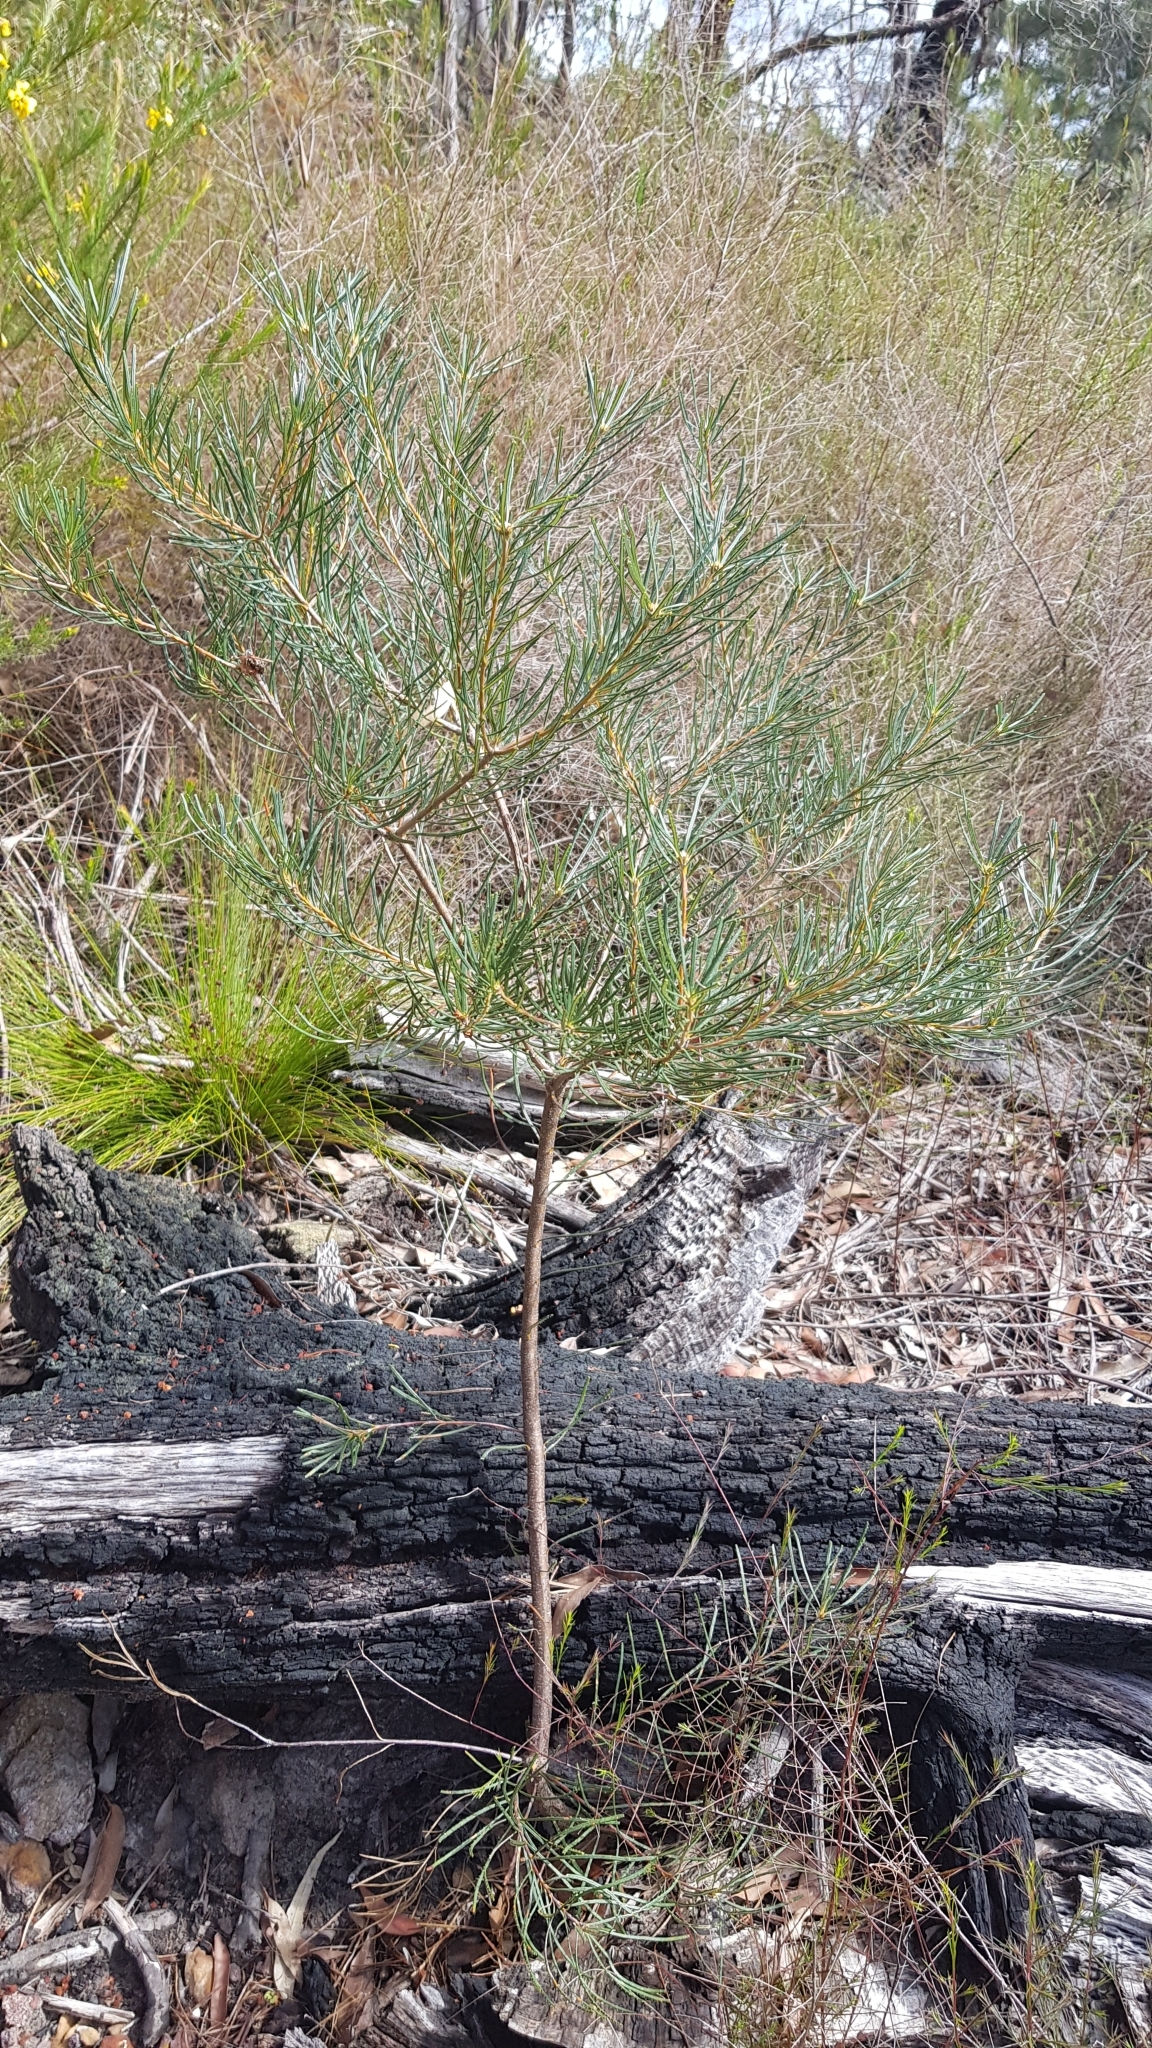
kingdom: Plantae
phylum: Tracheophyta
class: Magnoliopsida
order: Proteales
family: Proteaceae
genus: Banksia
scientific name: Banksia spinulosa
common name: Hairpin banksia
